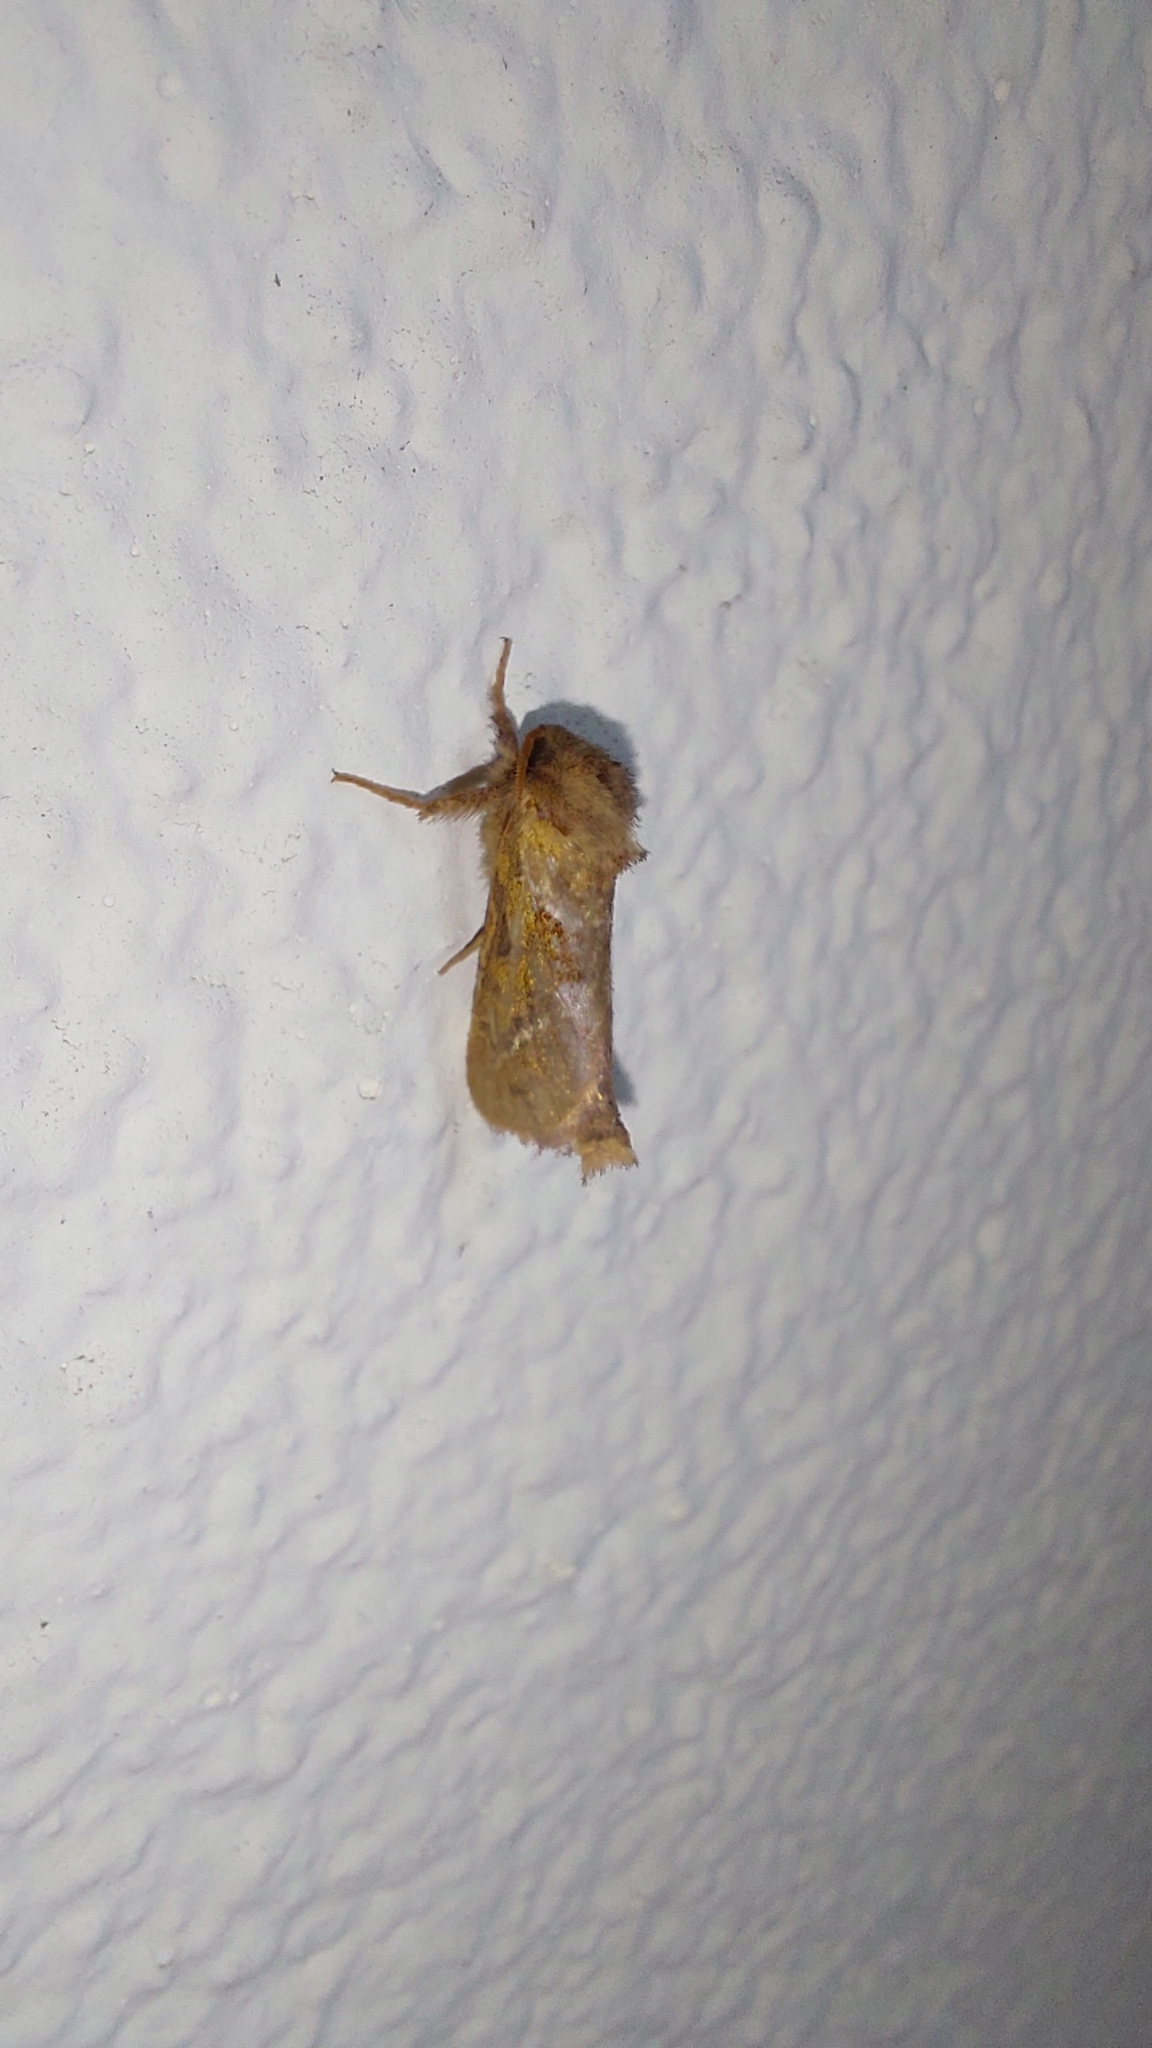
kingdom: Animalia
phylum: Arthropoda
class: Insecta
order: Lepidoptera
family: Hepialidae
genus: Triodia
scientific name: Triodia sylvina
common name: Orange swift
